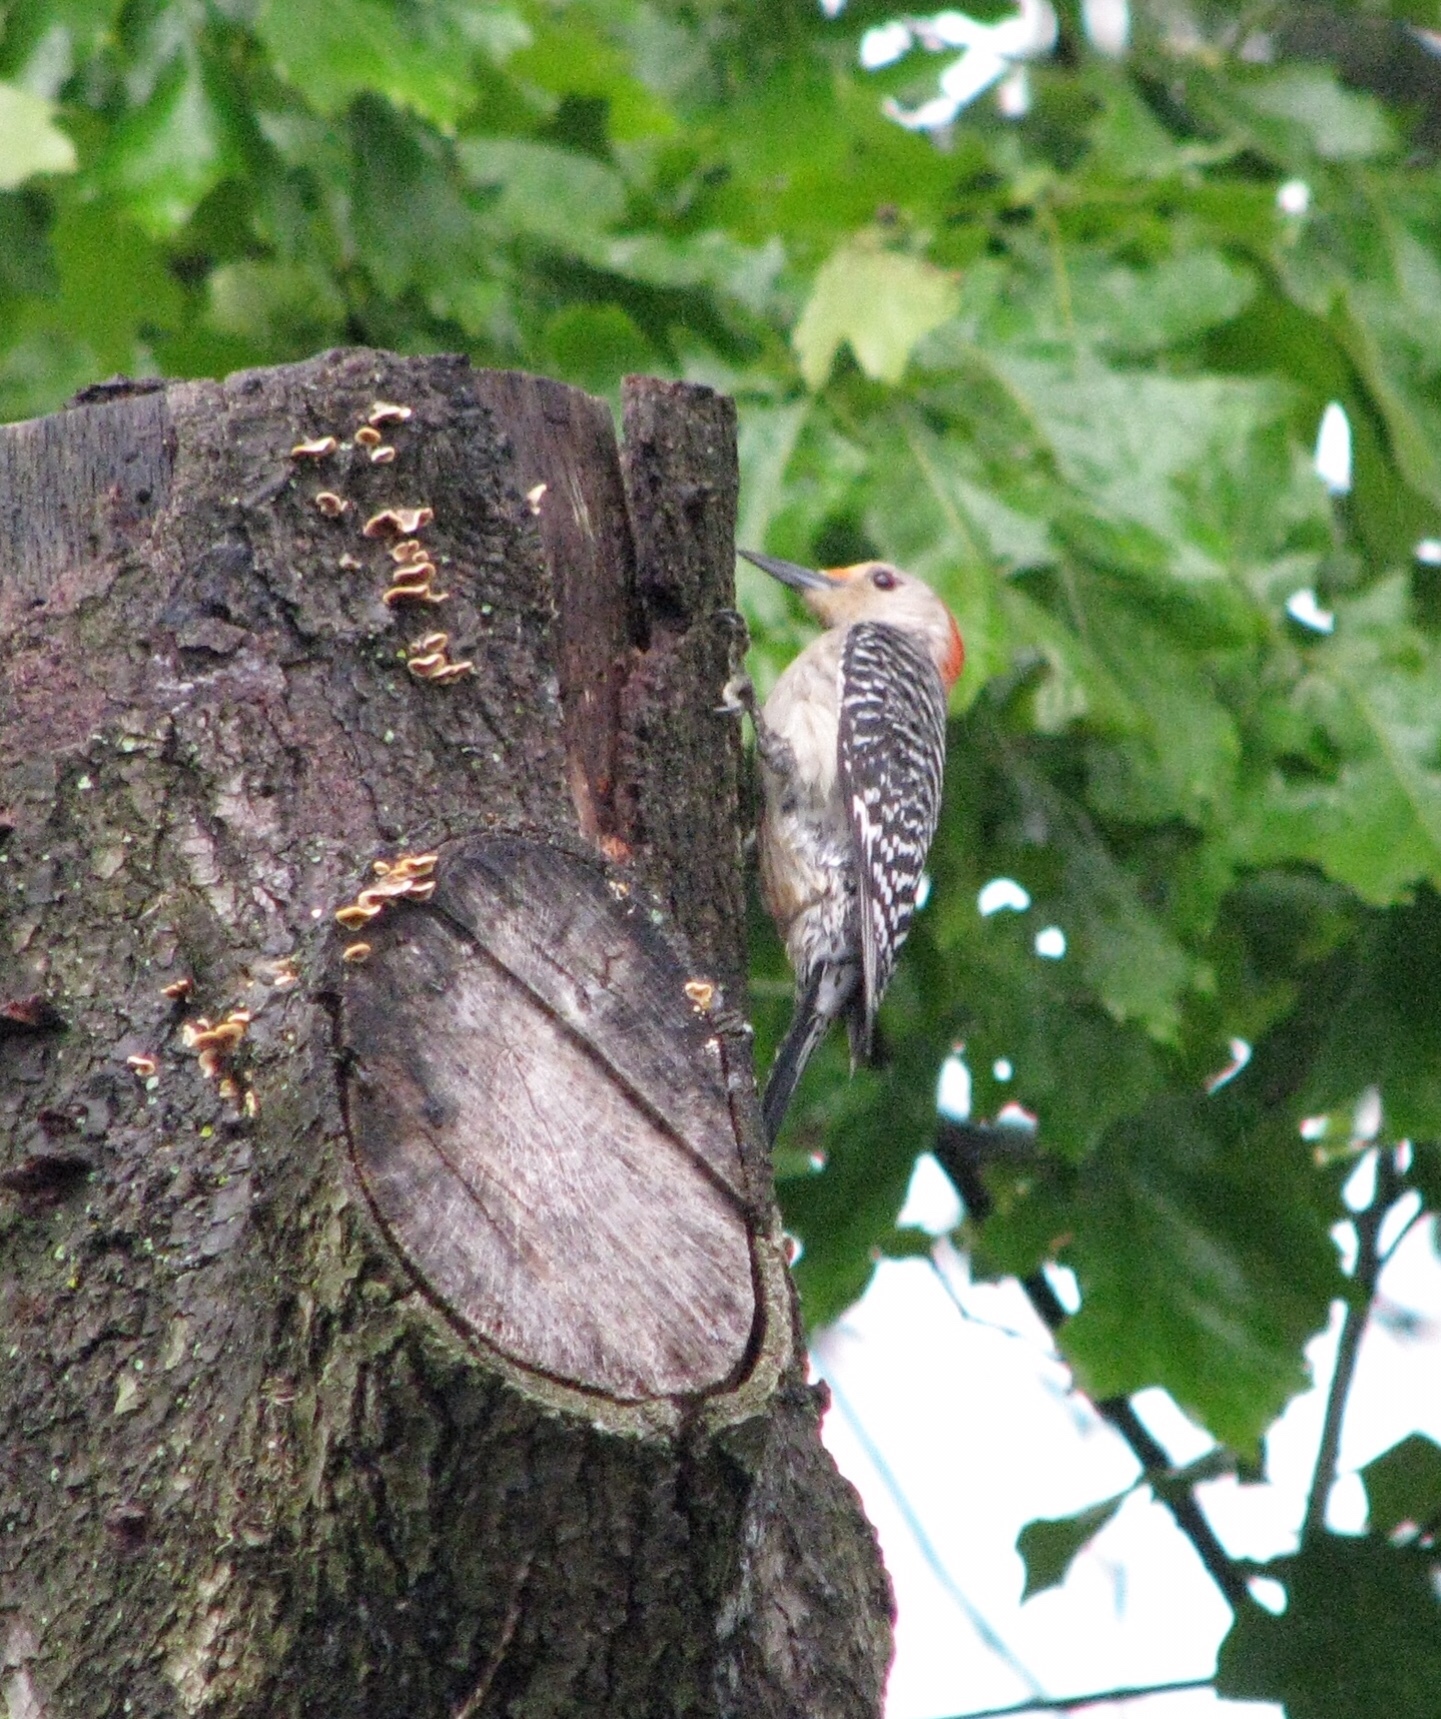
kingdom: Animalia
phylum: Chordata
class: Aves
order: Piciformes
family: Picidae
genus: Melanerpes
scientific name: Melanerpes carolinus
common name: Red-bellied woodpecker
